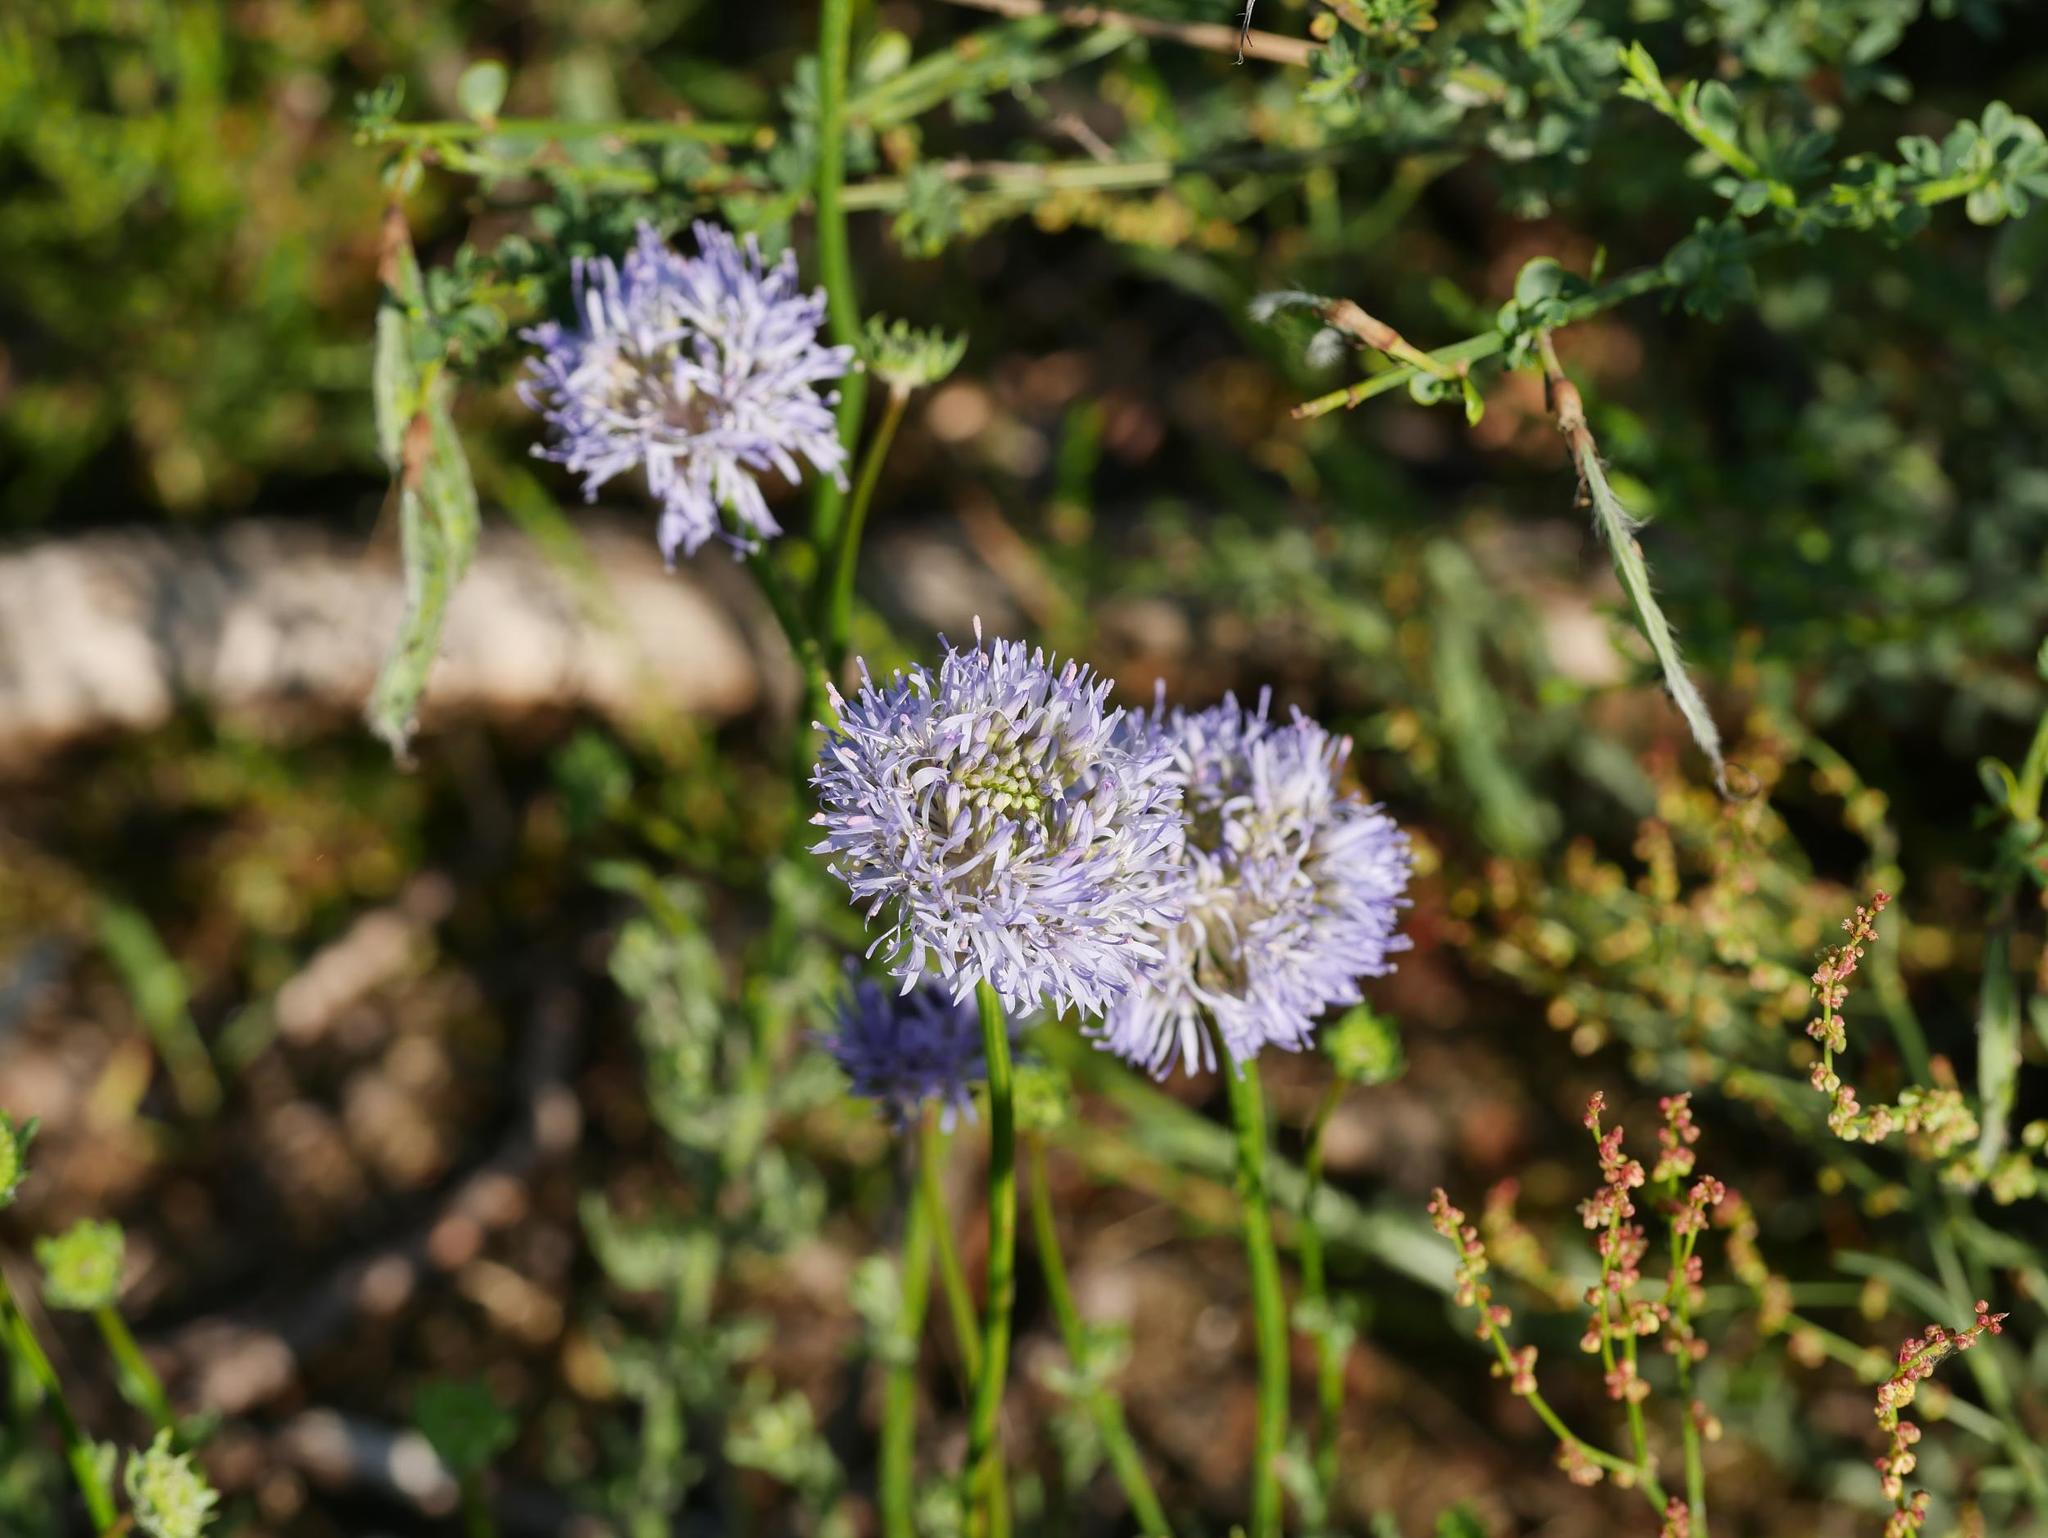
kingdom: Plantae
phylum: Tracheophyta
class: Magnoliopsida
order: Asterales
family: Campanulaceae
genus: Jasione
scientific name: Jasione montana
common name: Sheep's-bit
